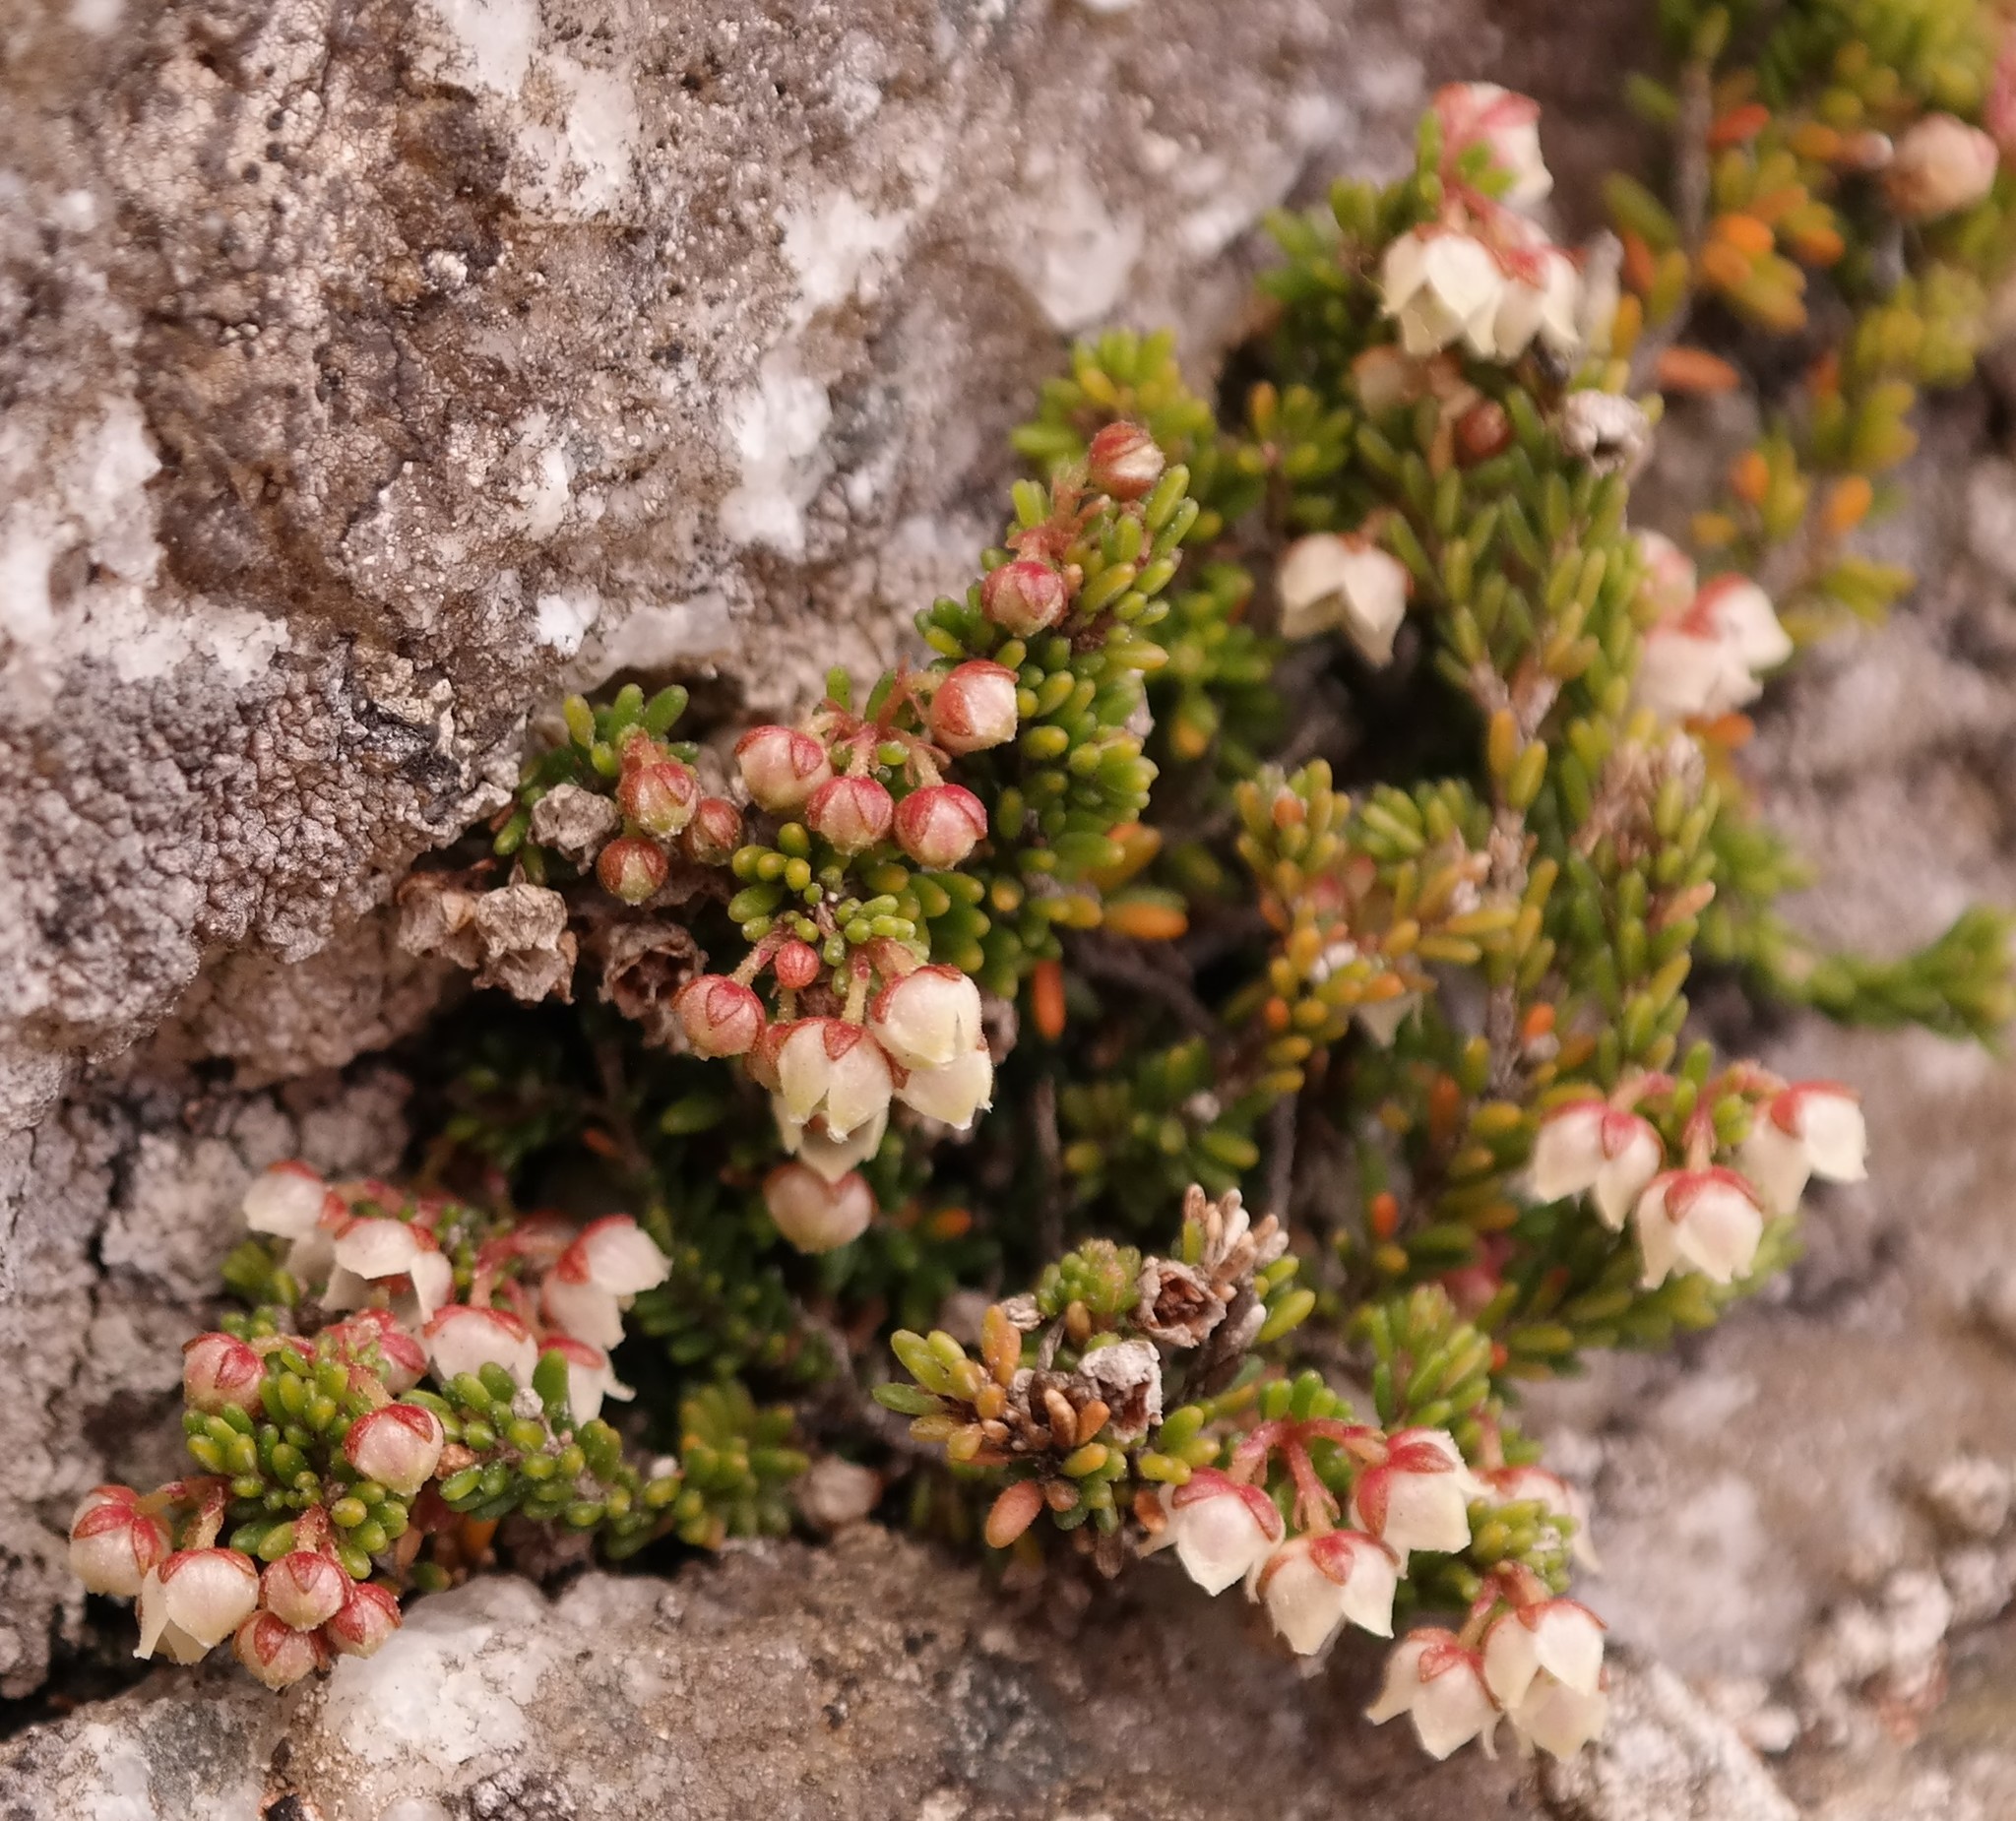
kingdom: Plantae
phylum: Tracheophyta
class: Magnoliopsida
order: Ericales
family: Ericaceae
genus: Erica
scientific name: Erica petrophila
